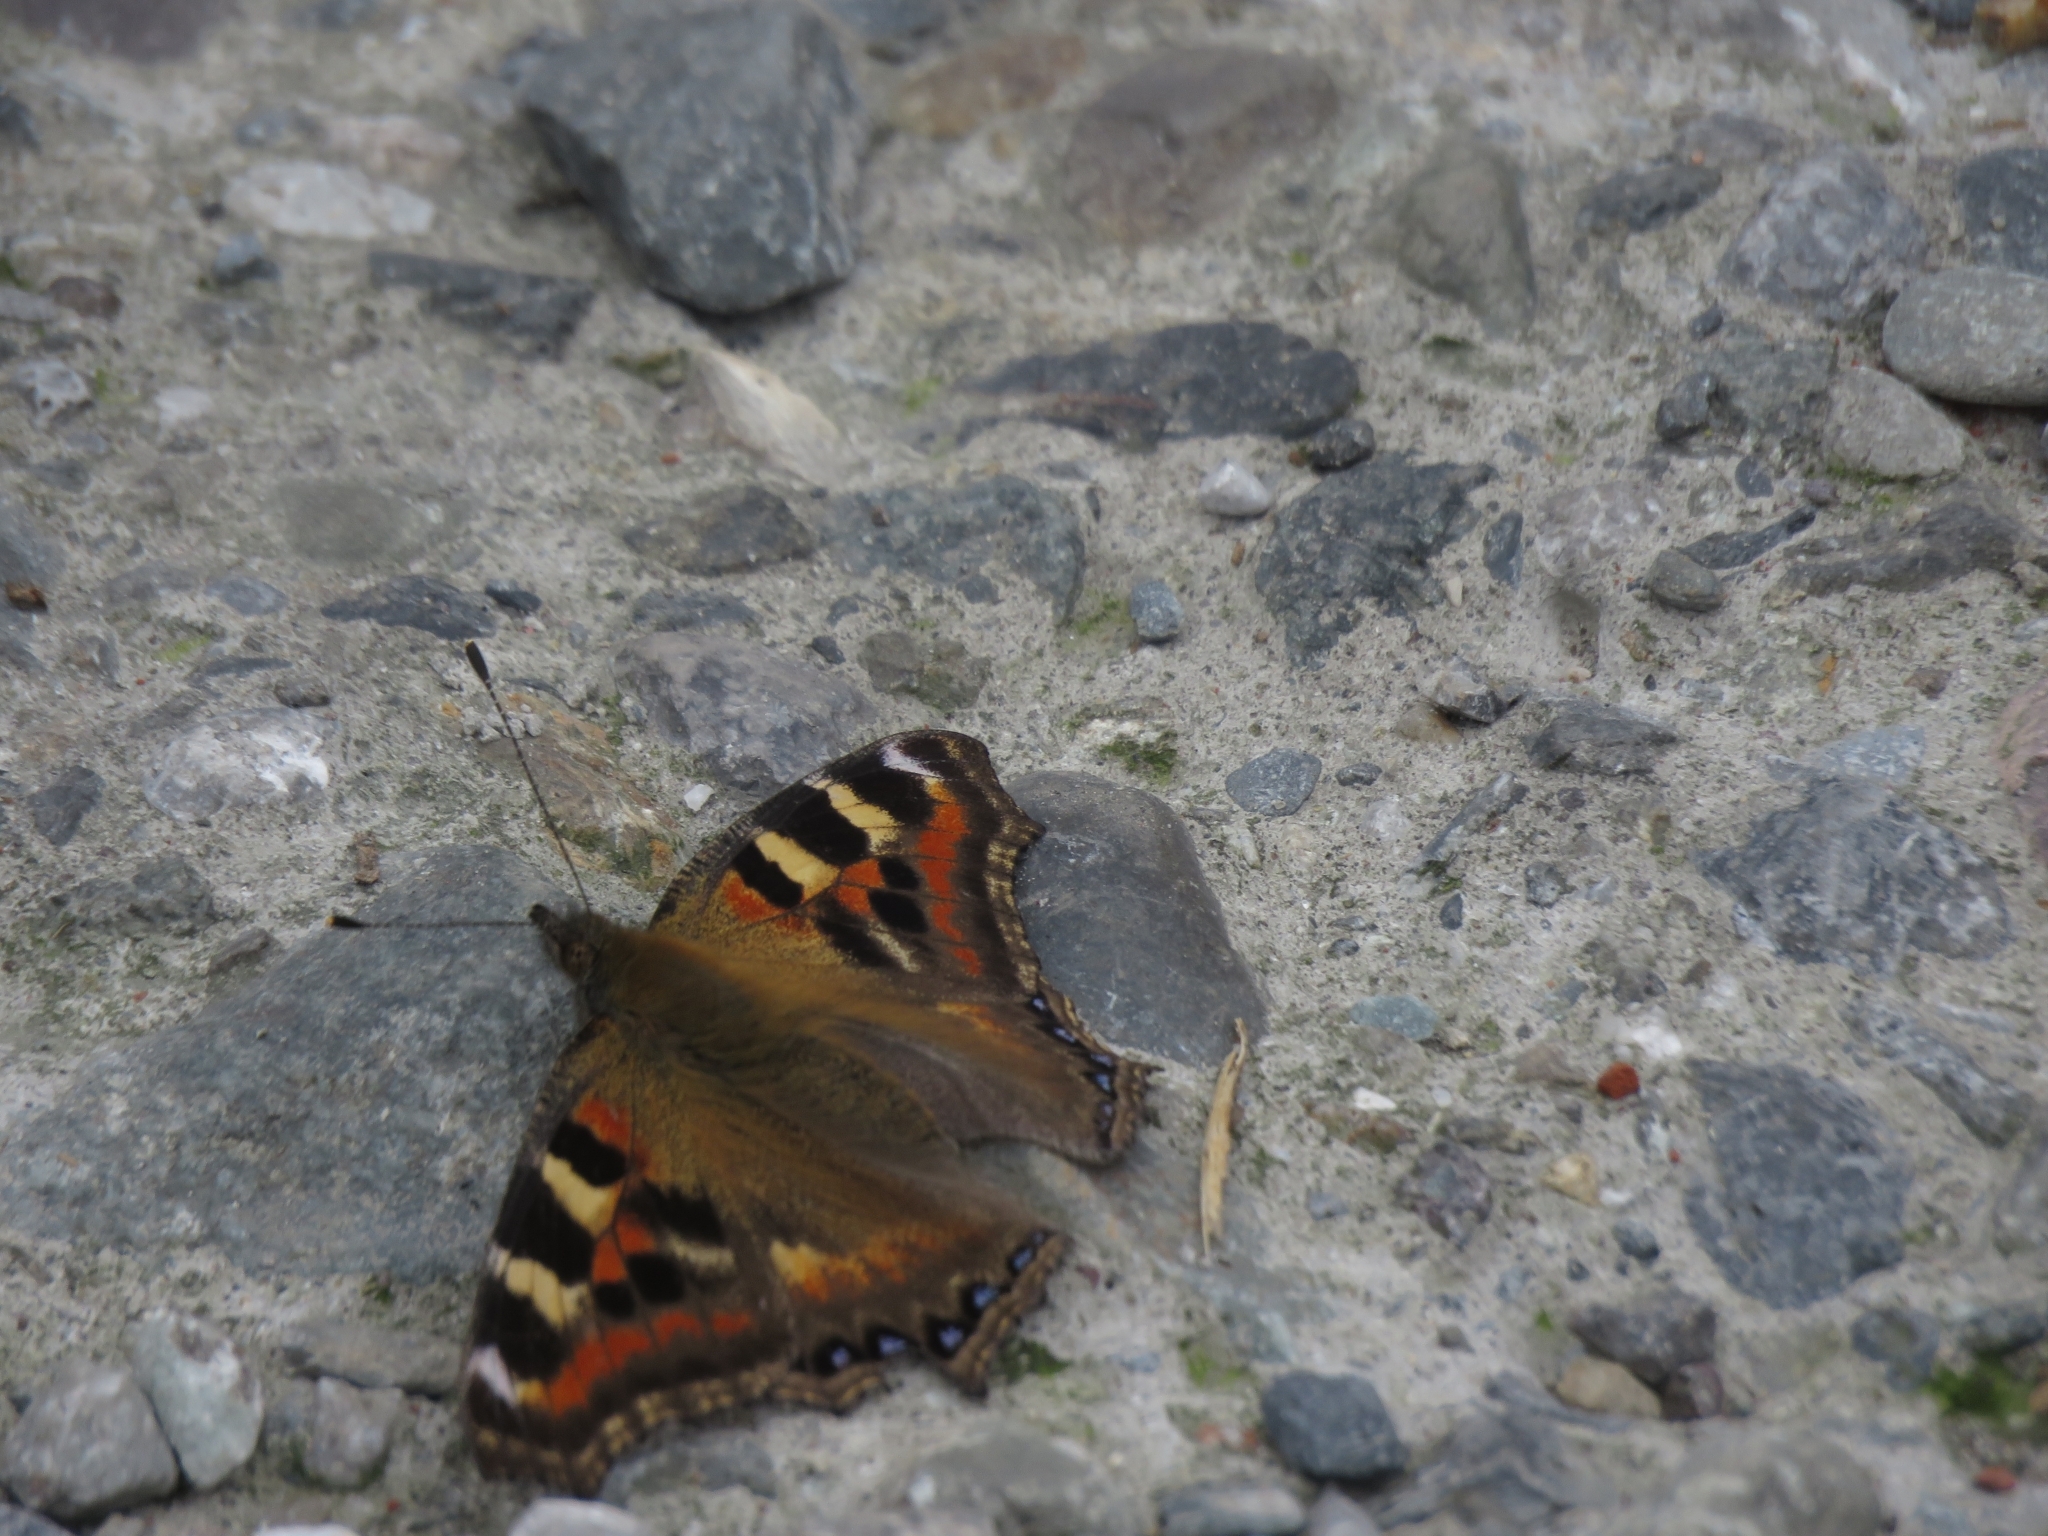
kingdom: Animalia
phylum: Arthropoda
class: Insecta
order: Lepidoptera
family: Nymphalidae
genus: Aglais
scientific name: Aglais caschmirensis
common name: Indian tortoiseshell
